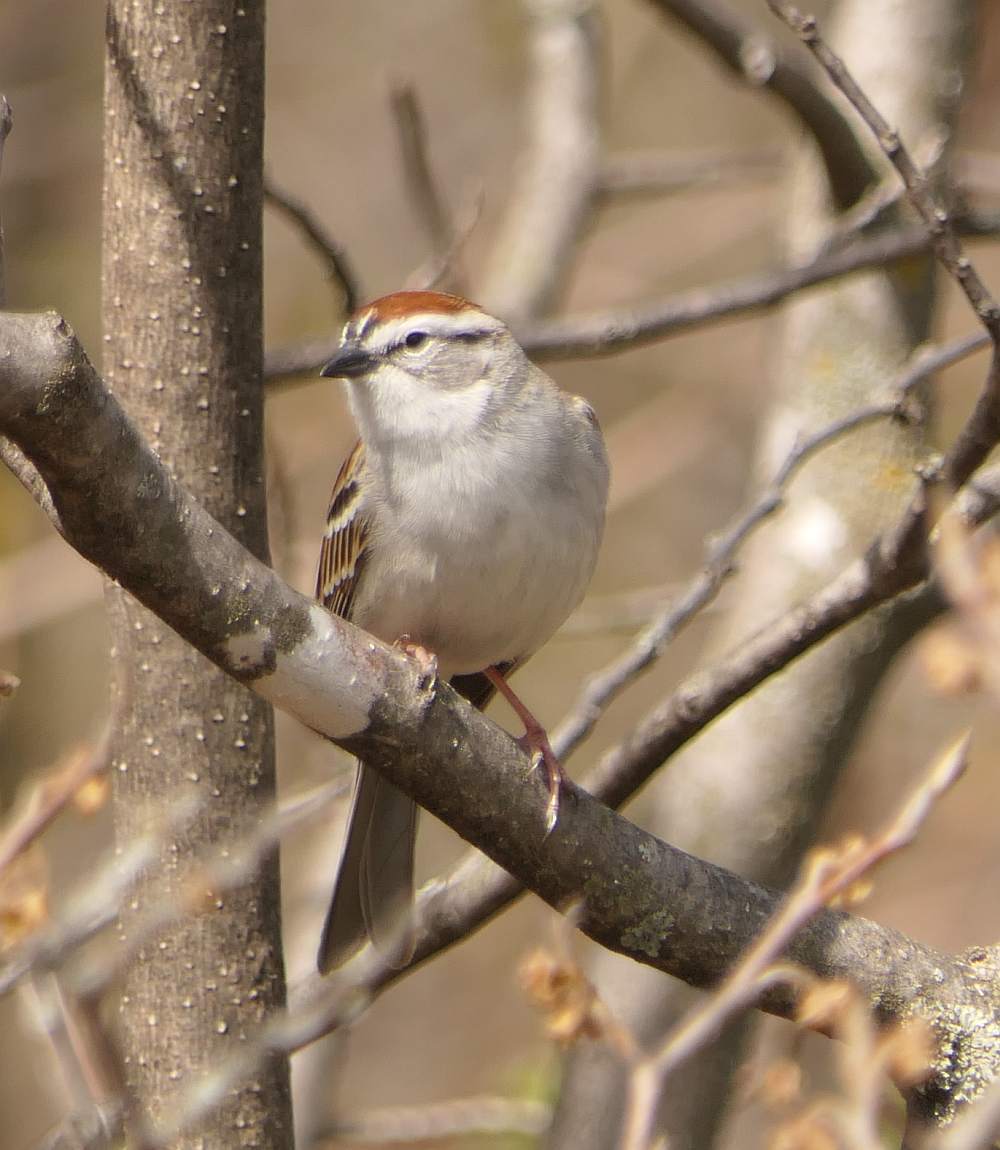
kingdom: Animalia
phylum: Chordata
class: Aves
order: Passeriformes
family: Passerellidae
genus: Spizella
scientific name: Spizella passerina
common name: Chipping sparrow
